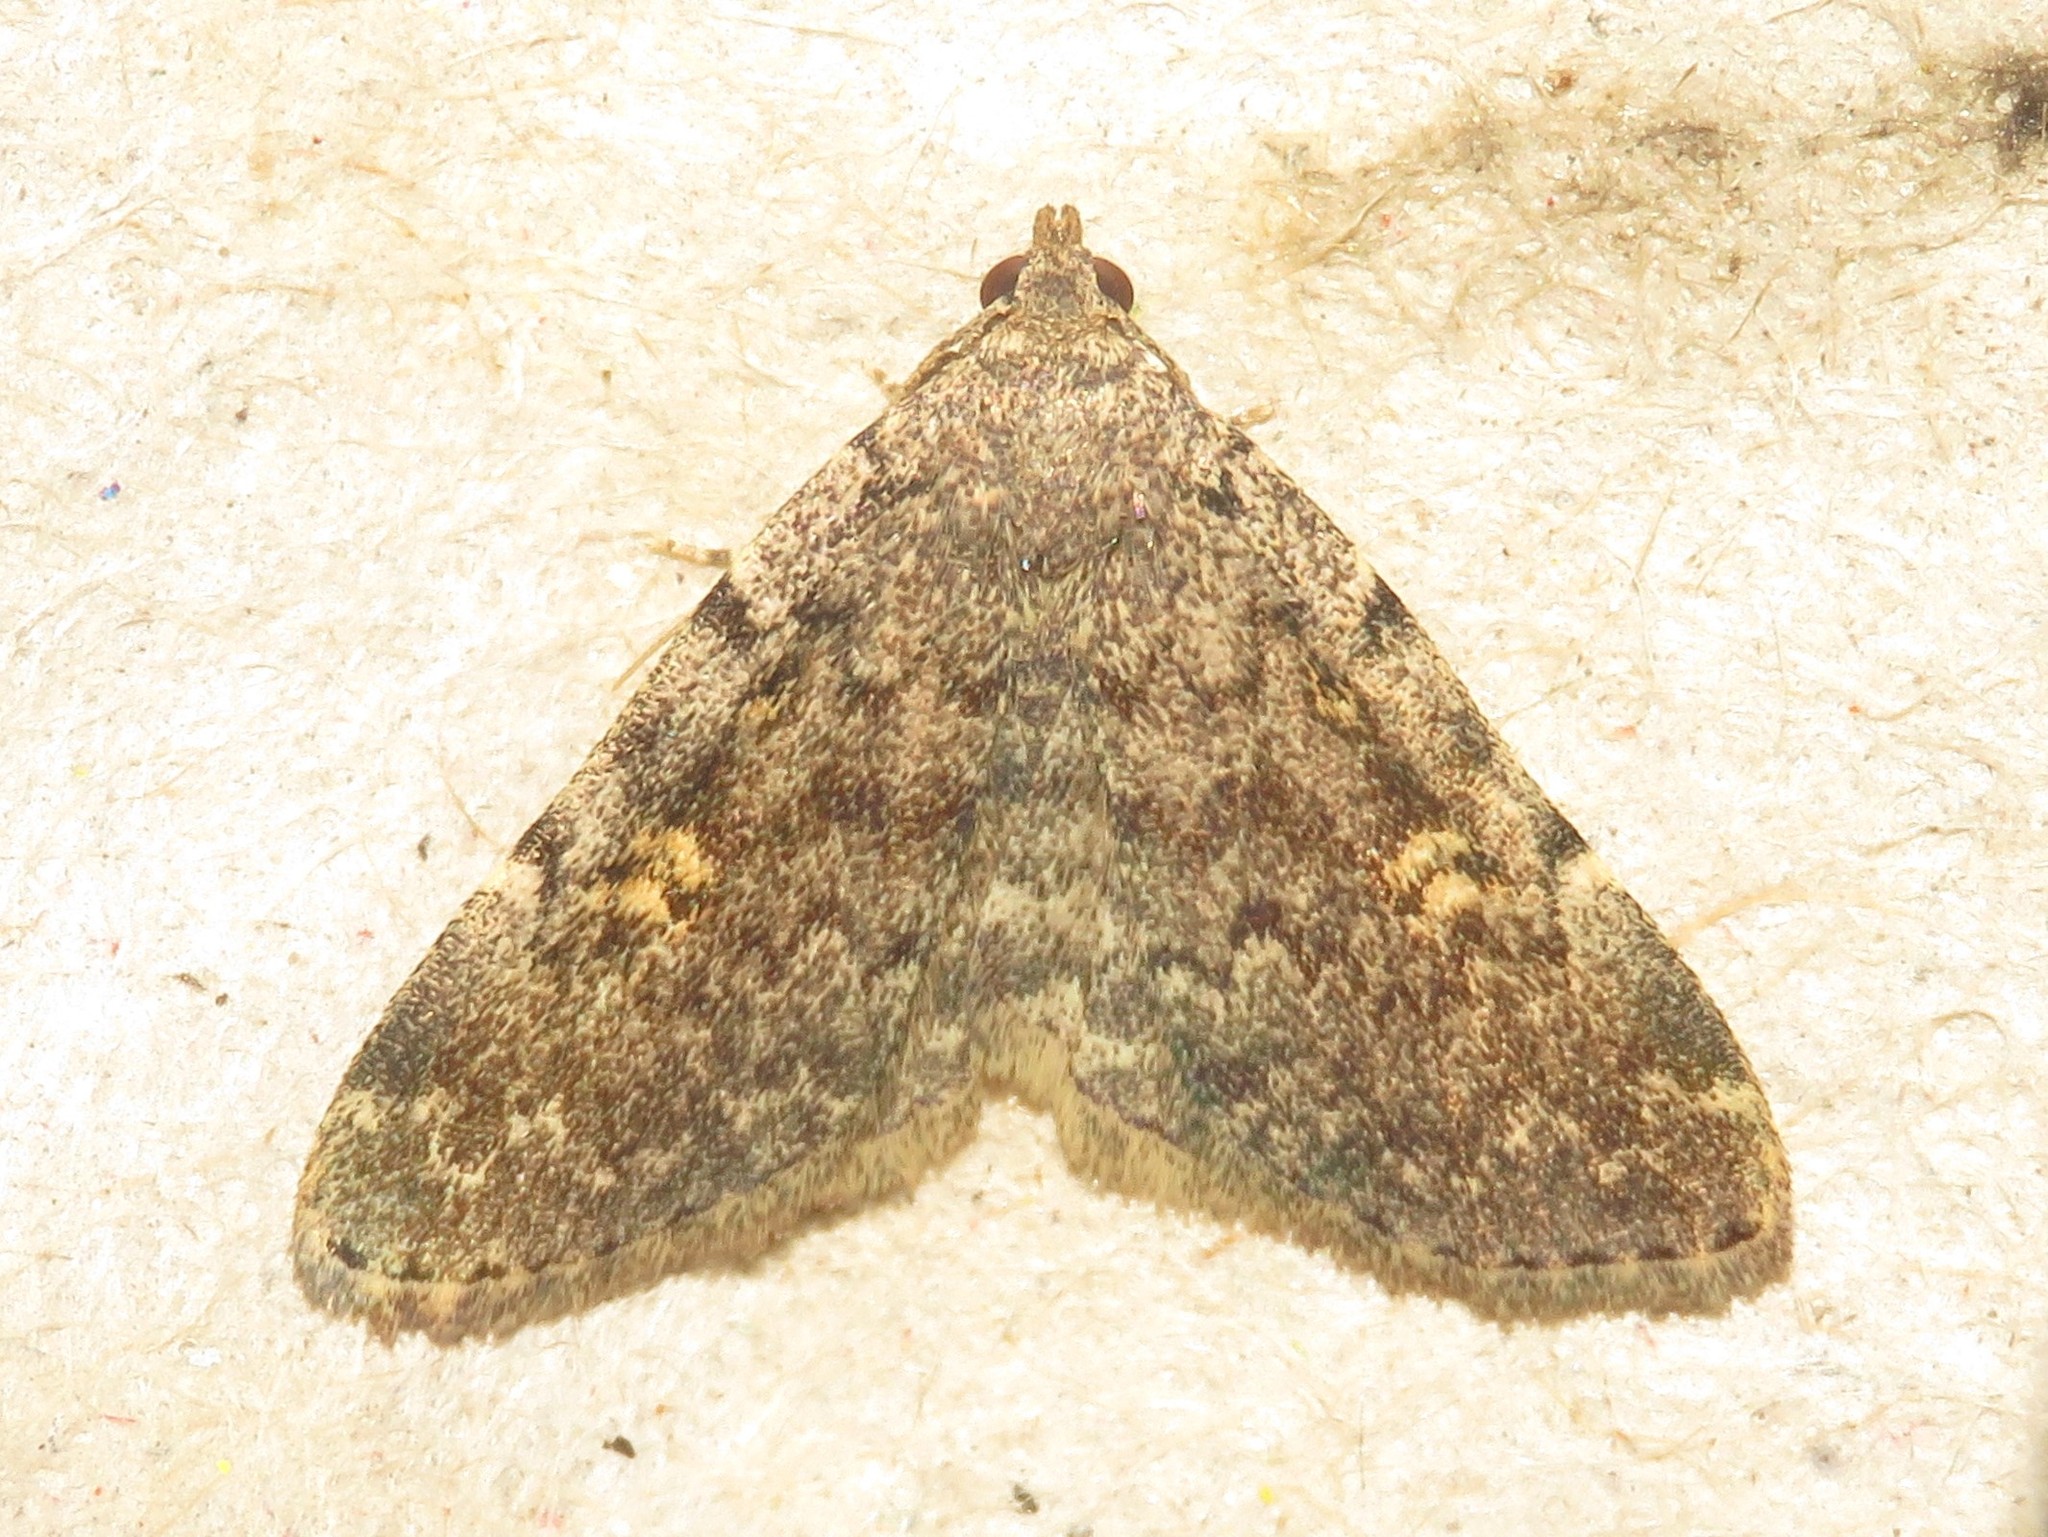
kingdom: Animalia
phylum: Arthropoda
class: Insecta
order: Lepidoptera
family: Erebidae
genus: Idia
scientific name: Idia aemula
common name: Common idia moth
